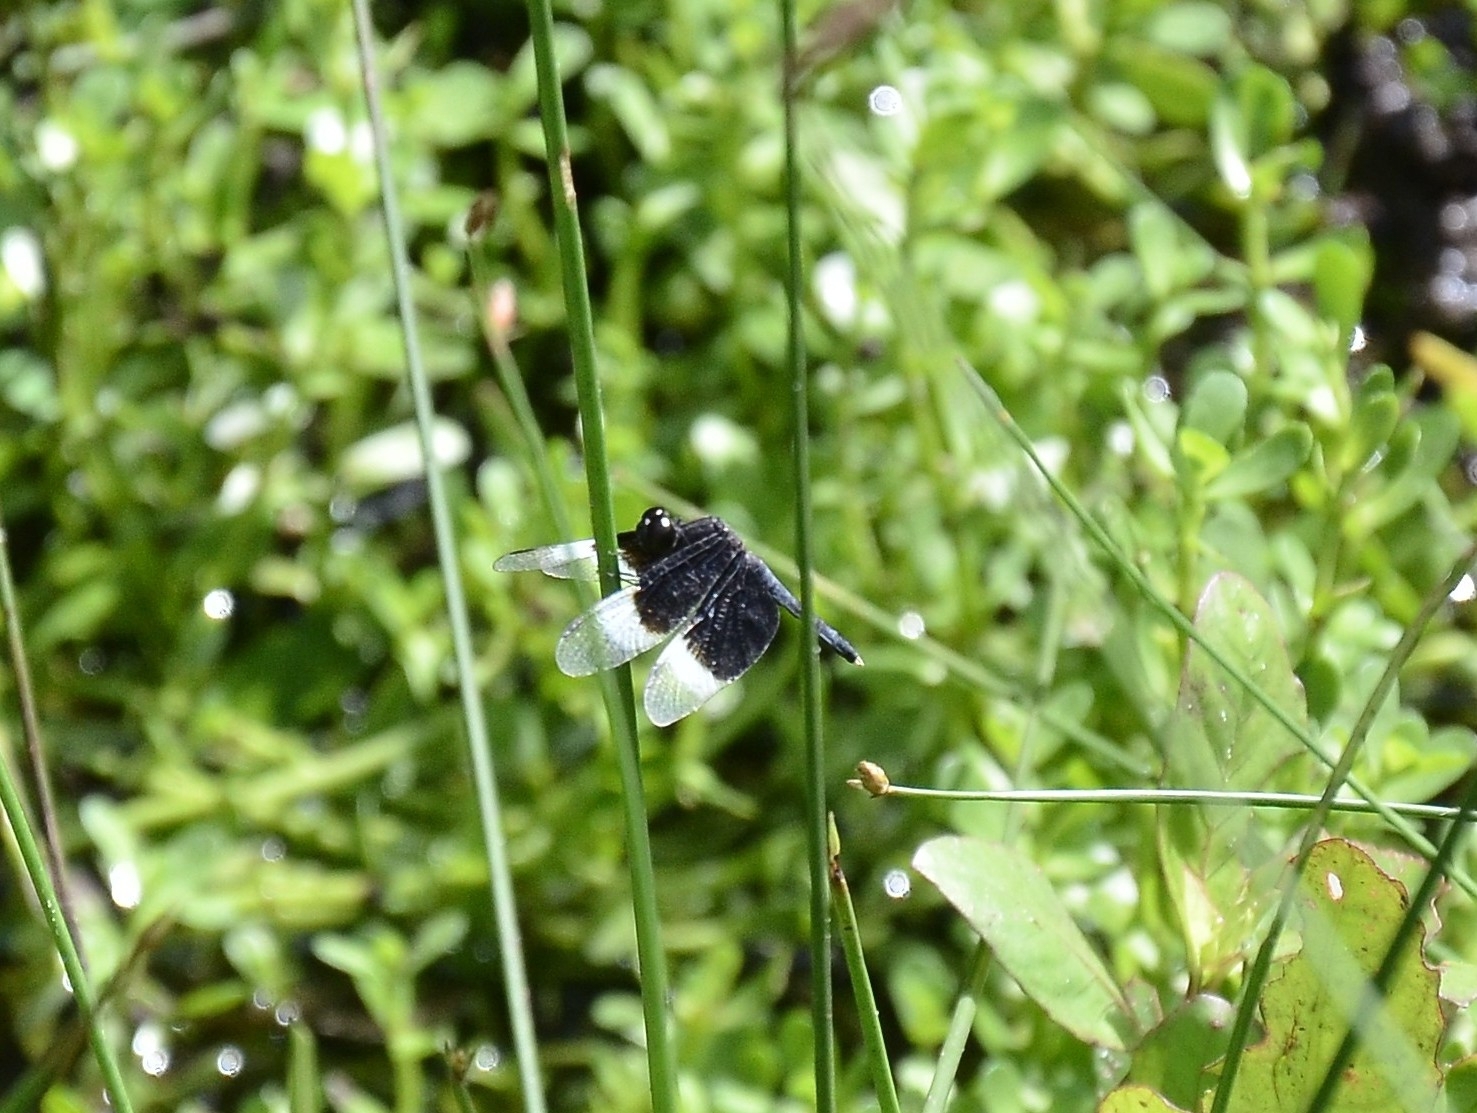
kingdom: Animalia
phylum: Arthropoda
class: Insecta
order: Odonata
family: Libellulidae
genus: Neurothemis
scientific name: Neurothemis tullia
